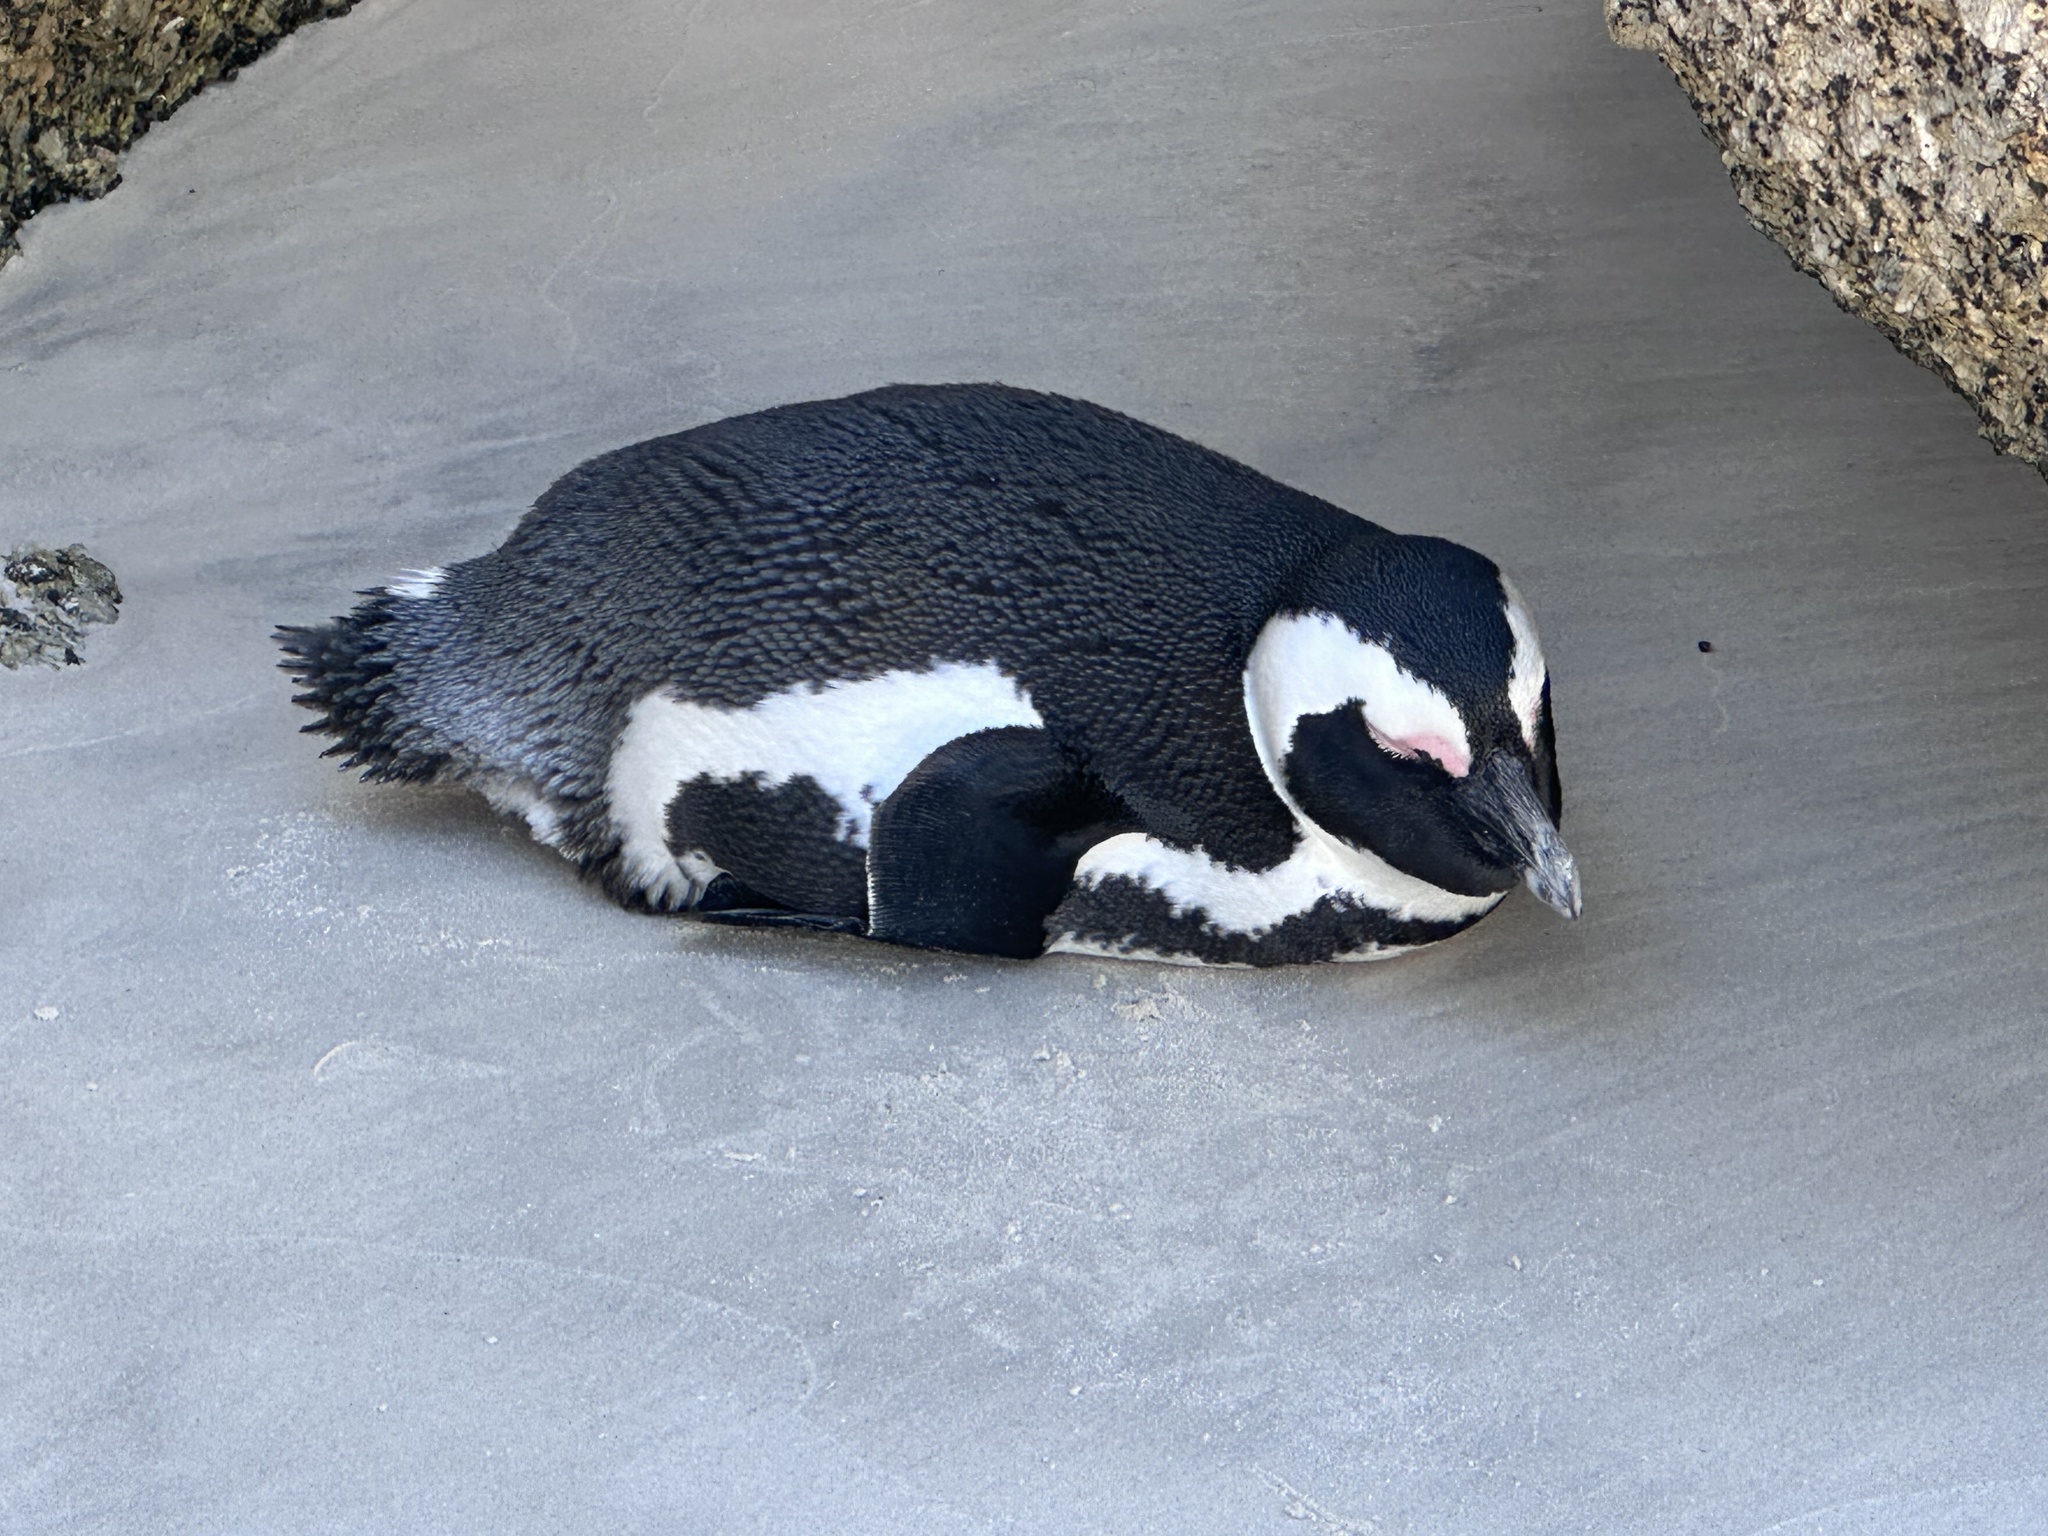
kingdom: Animalia
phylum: Chordata
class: Aves
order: Sphenisciformes
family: Spheniscidae
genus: Spheniscus
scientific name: Spheniscus demersus
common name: African penguin
